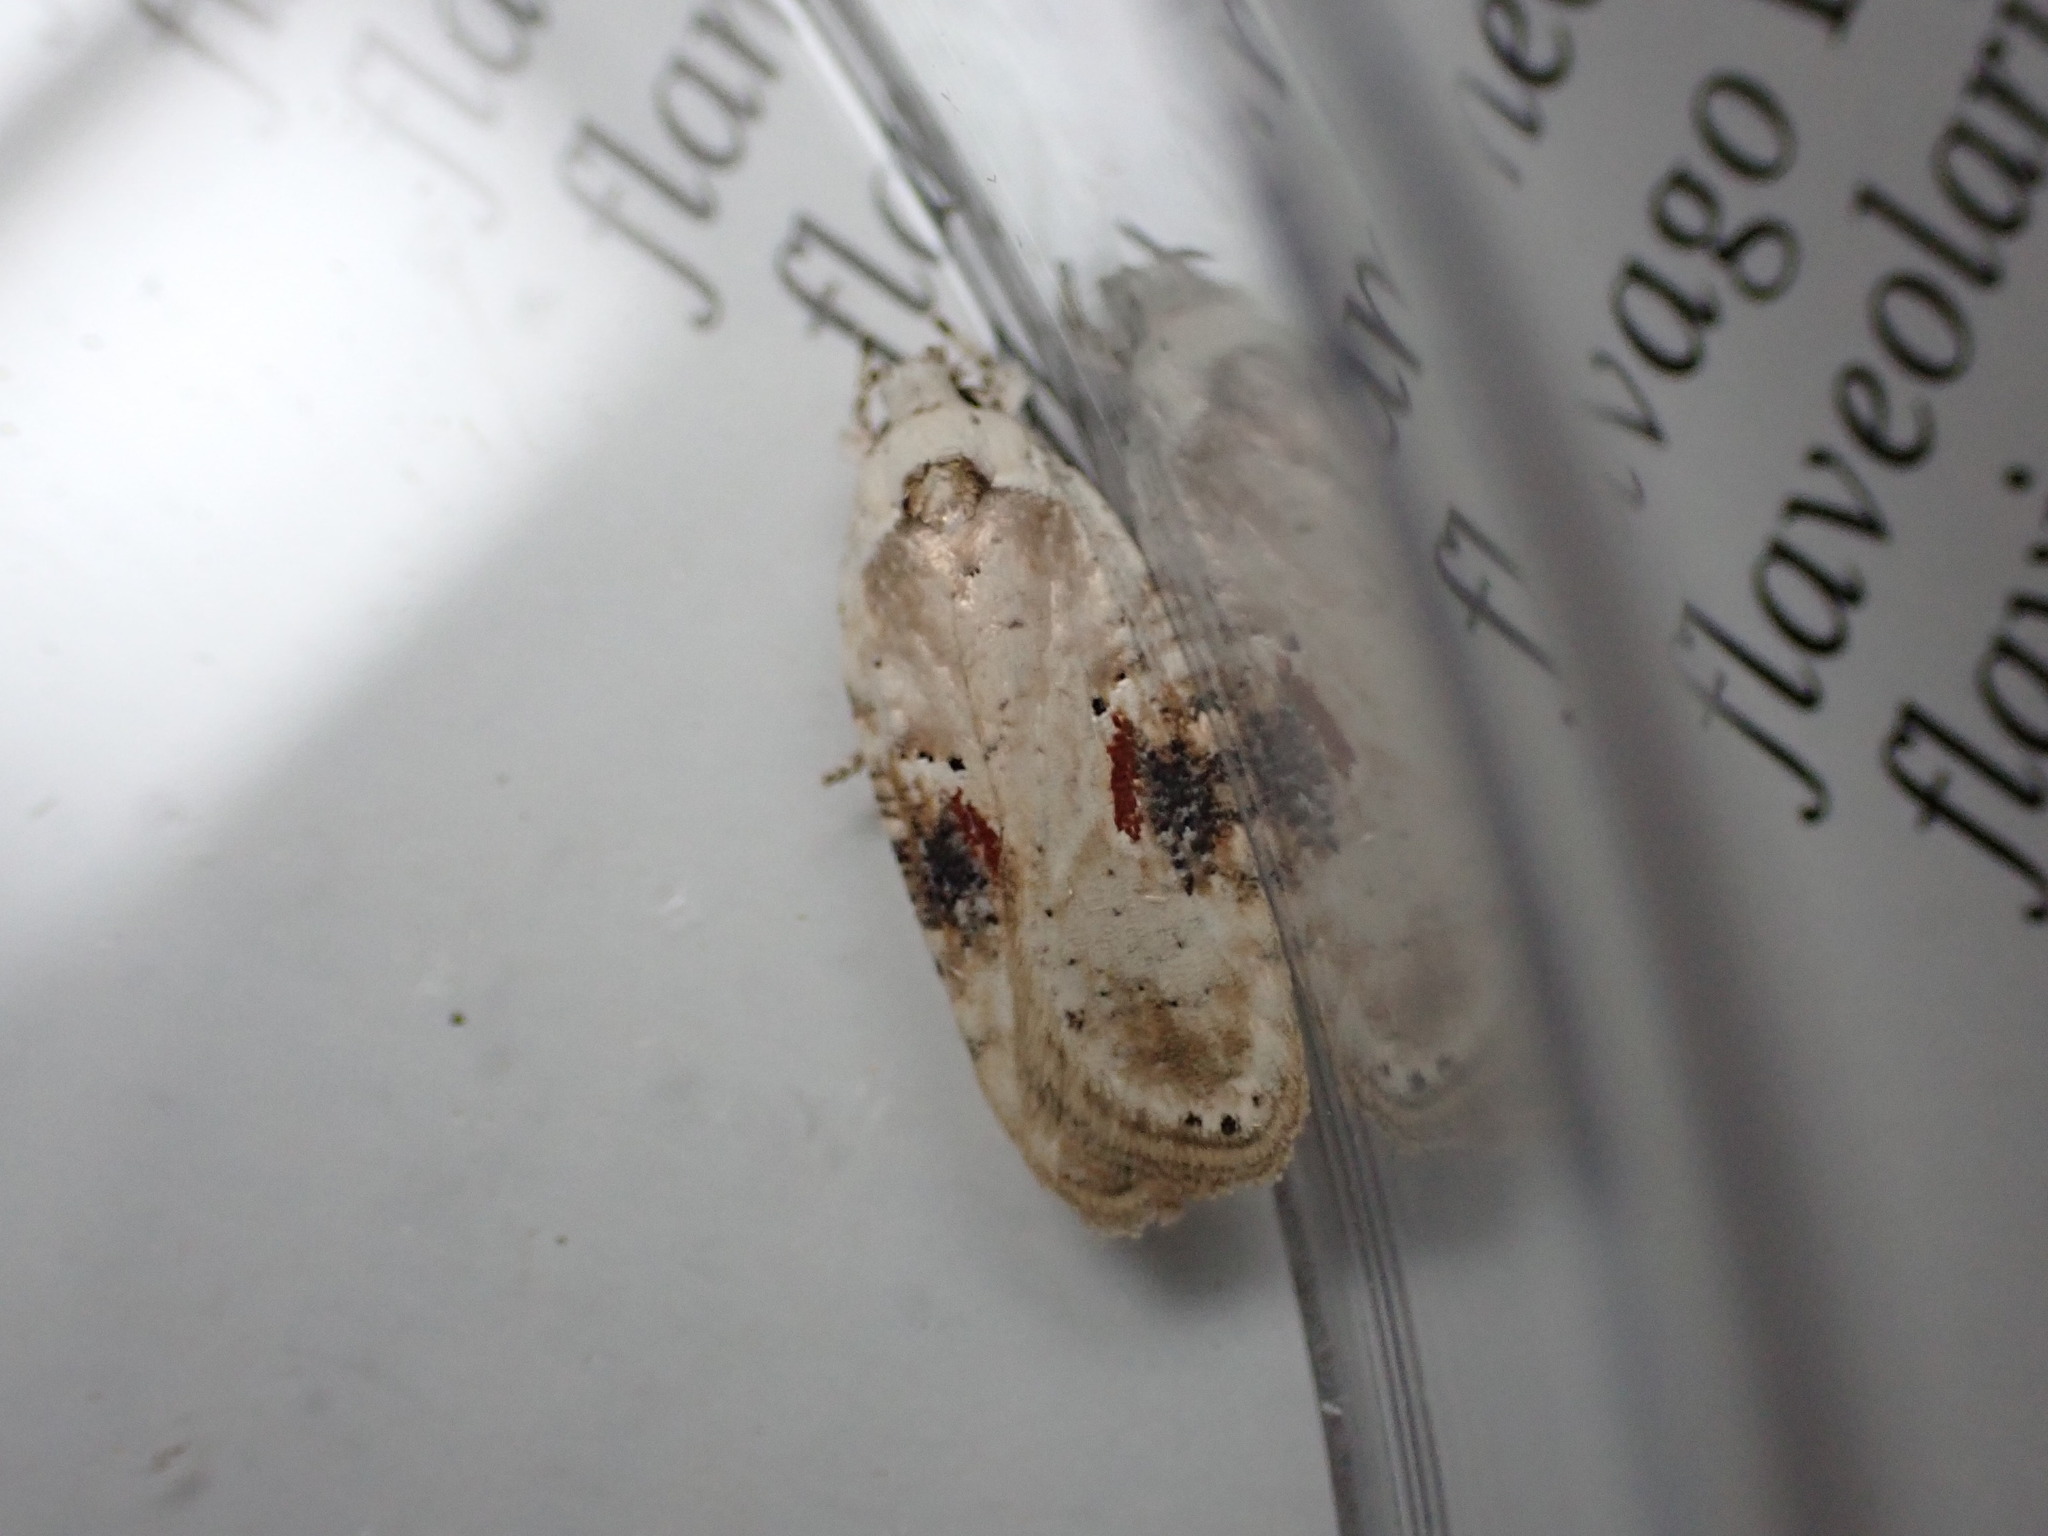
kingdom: Animalia
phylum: Arthropoda
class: Insecta
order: Lepidoptera
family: Depressariidae
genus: Agonopterix
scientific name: Agonopterix alstroemeriana
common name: Moth
